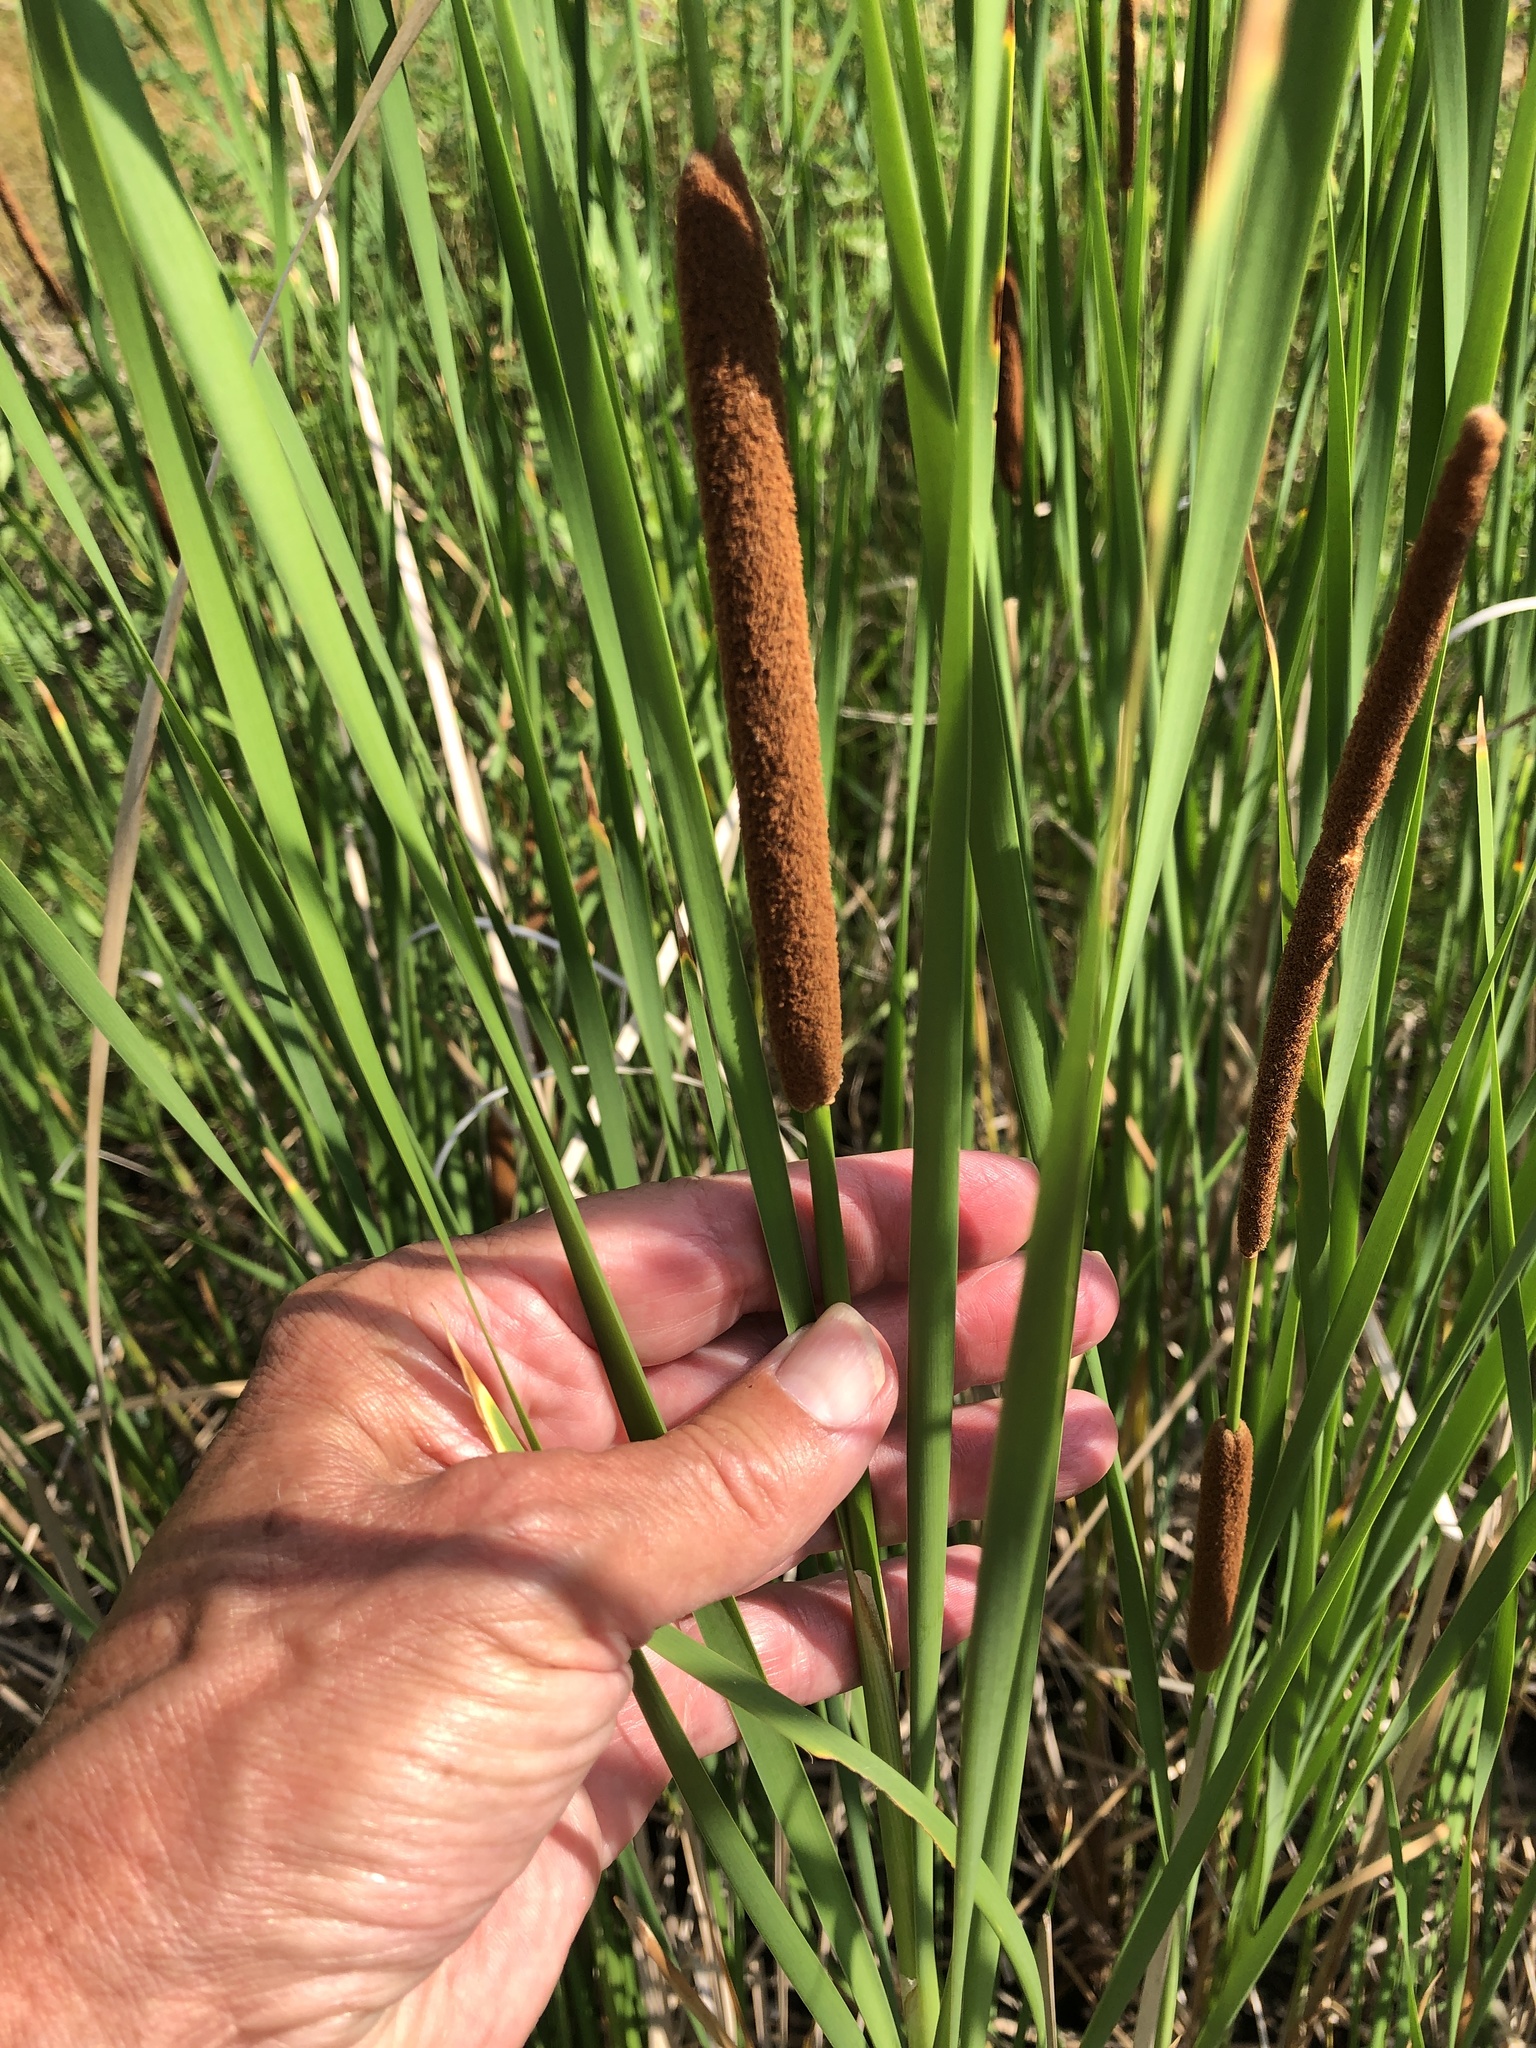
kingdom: Plantae
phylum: Tracheophyta
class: Liliopsida
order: Poales
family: Typhaceae
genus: Typha
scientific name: Typha angustifolia
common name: Lesser bulrush
